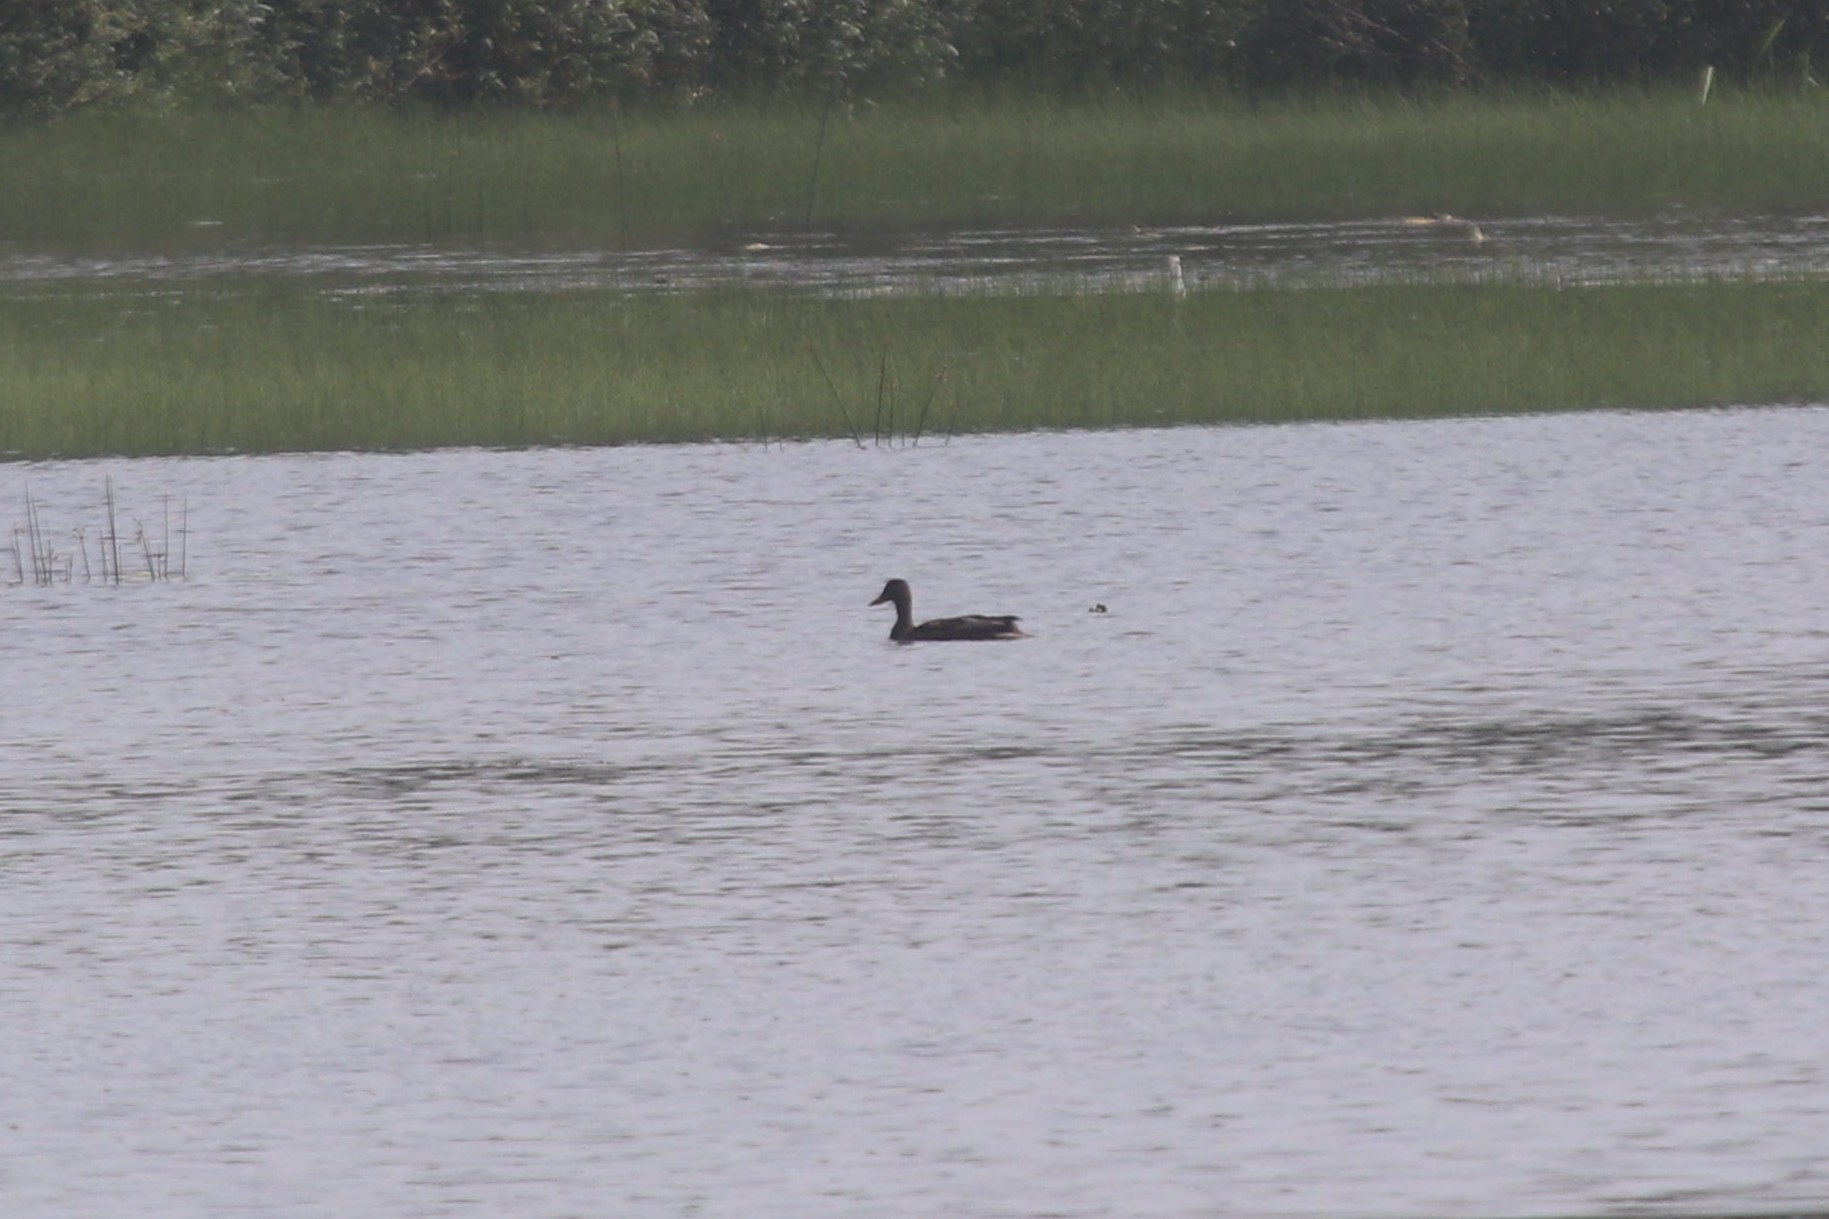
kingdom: Animalia
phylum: Chordata
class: Aves
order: Anseriformes
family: Anatidae
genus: Anas
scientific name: Anas platyrhynchos
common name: Mallard
